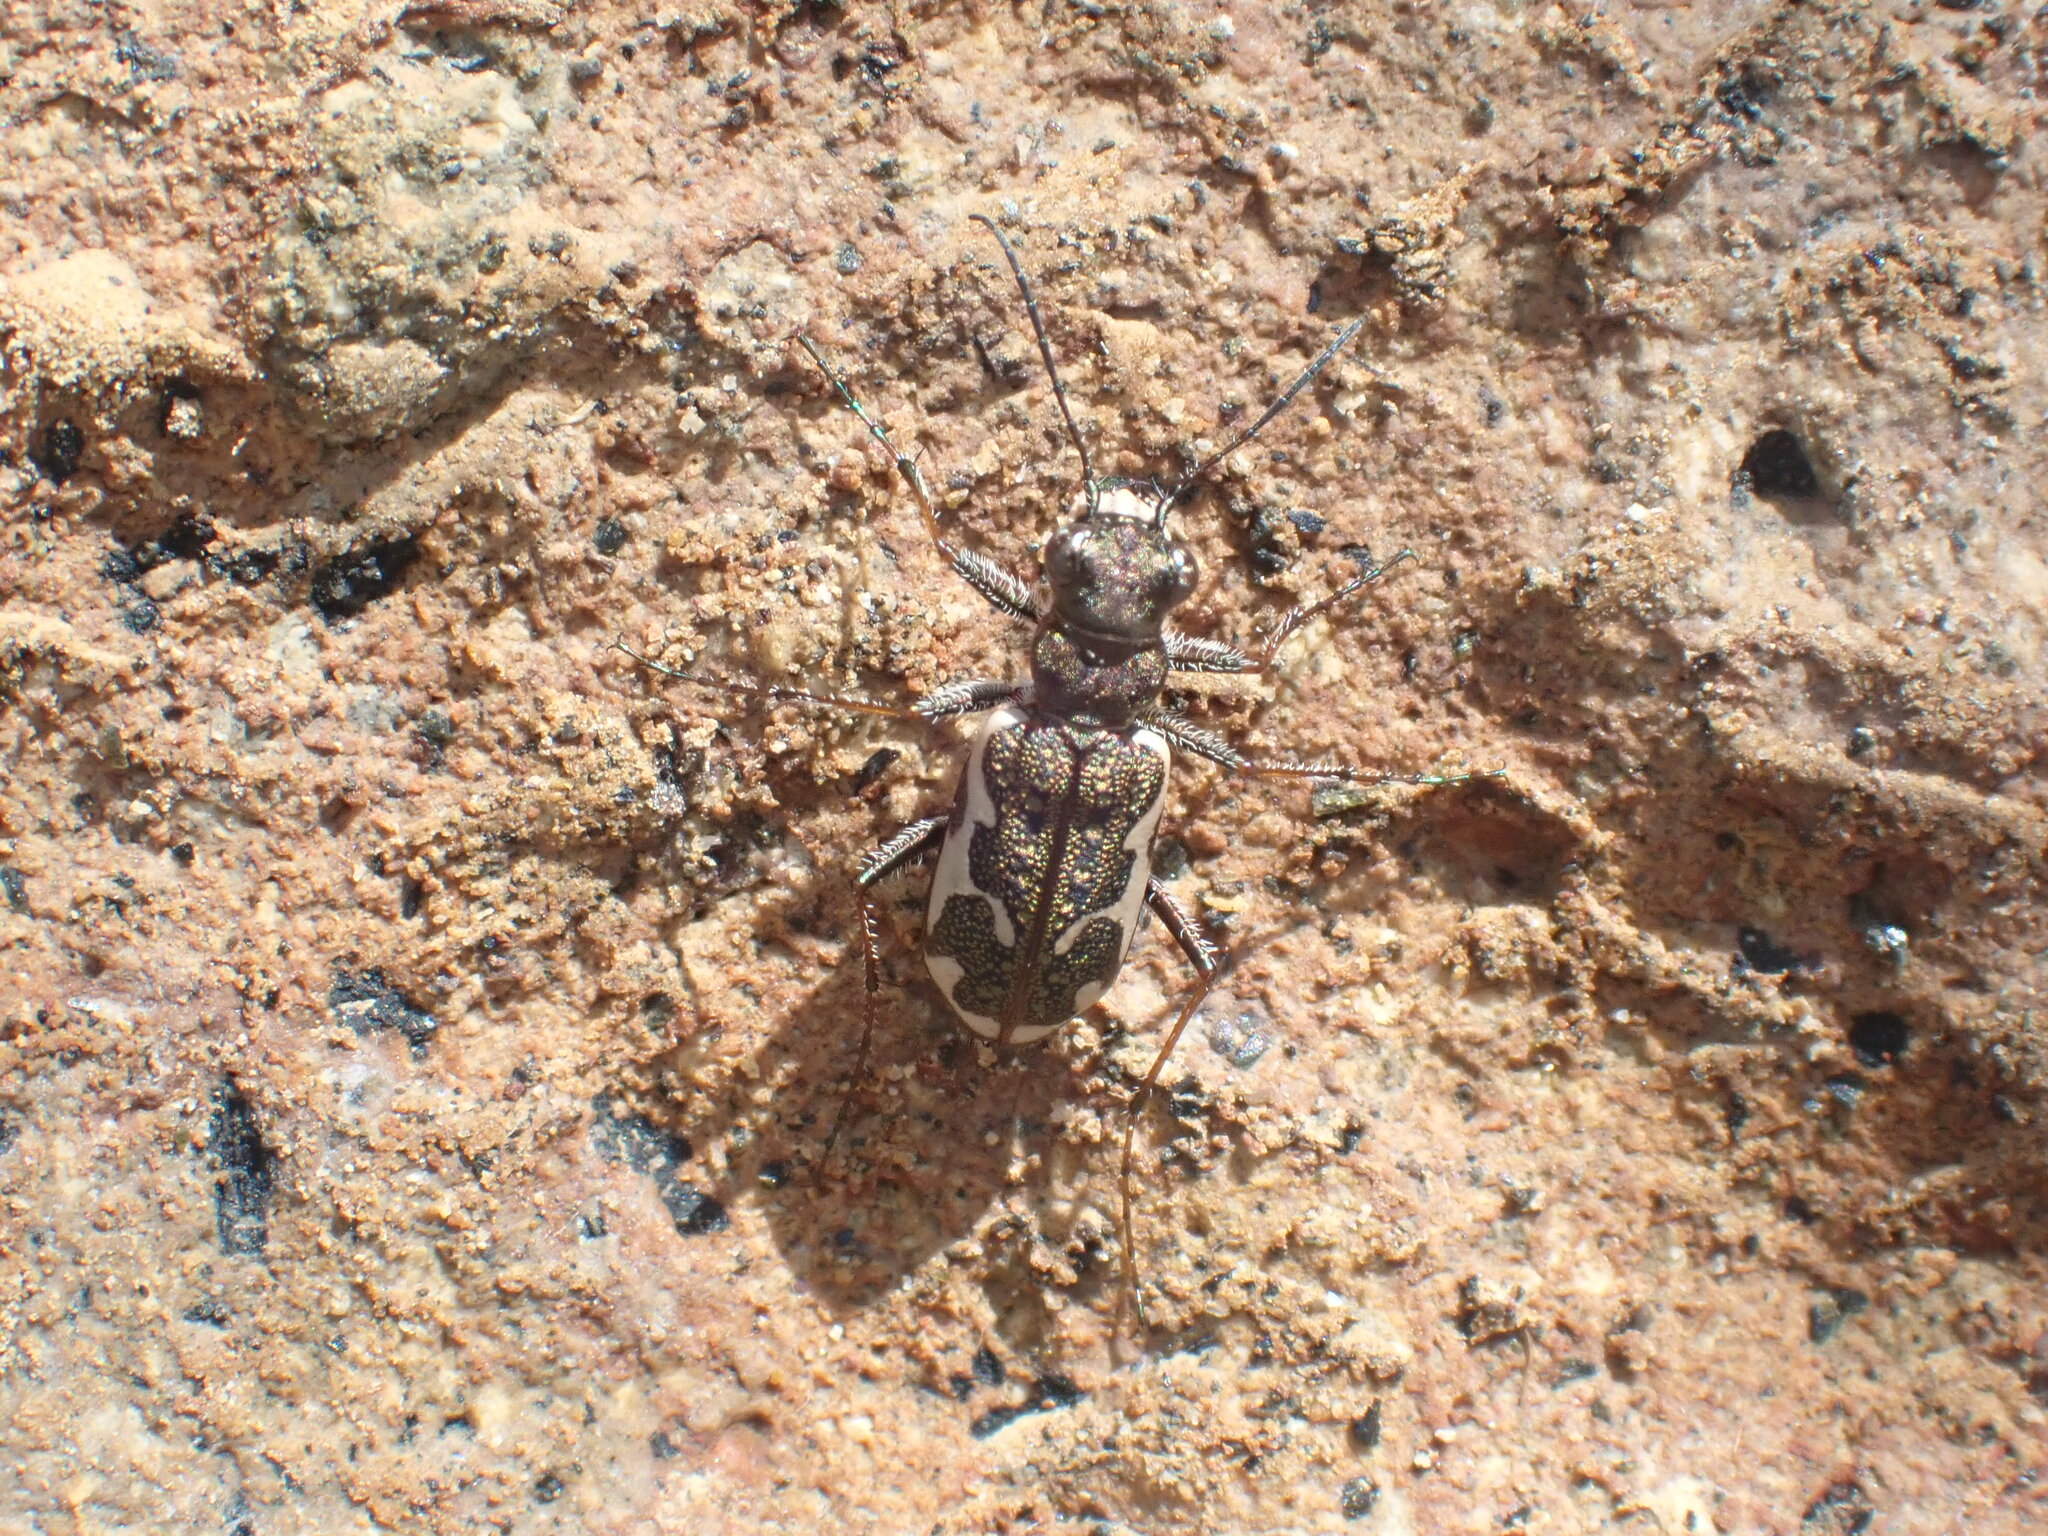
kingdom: Animalia
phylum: Arthropoda
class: Insecta
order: Coleoptera
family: Carabidae
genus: Neocicindela
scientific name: Neocicindela tuberculata
